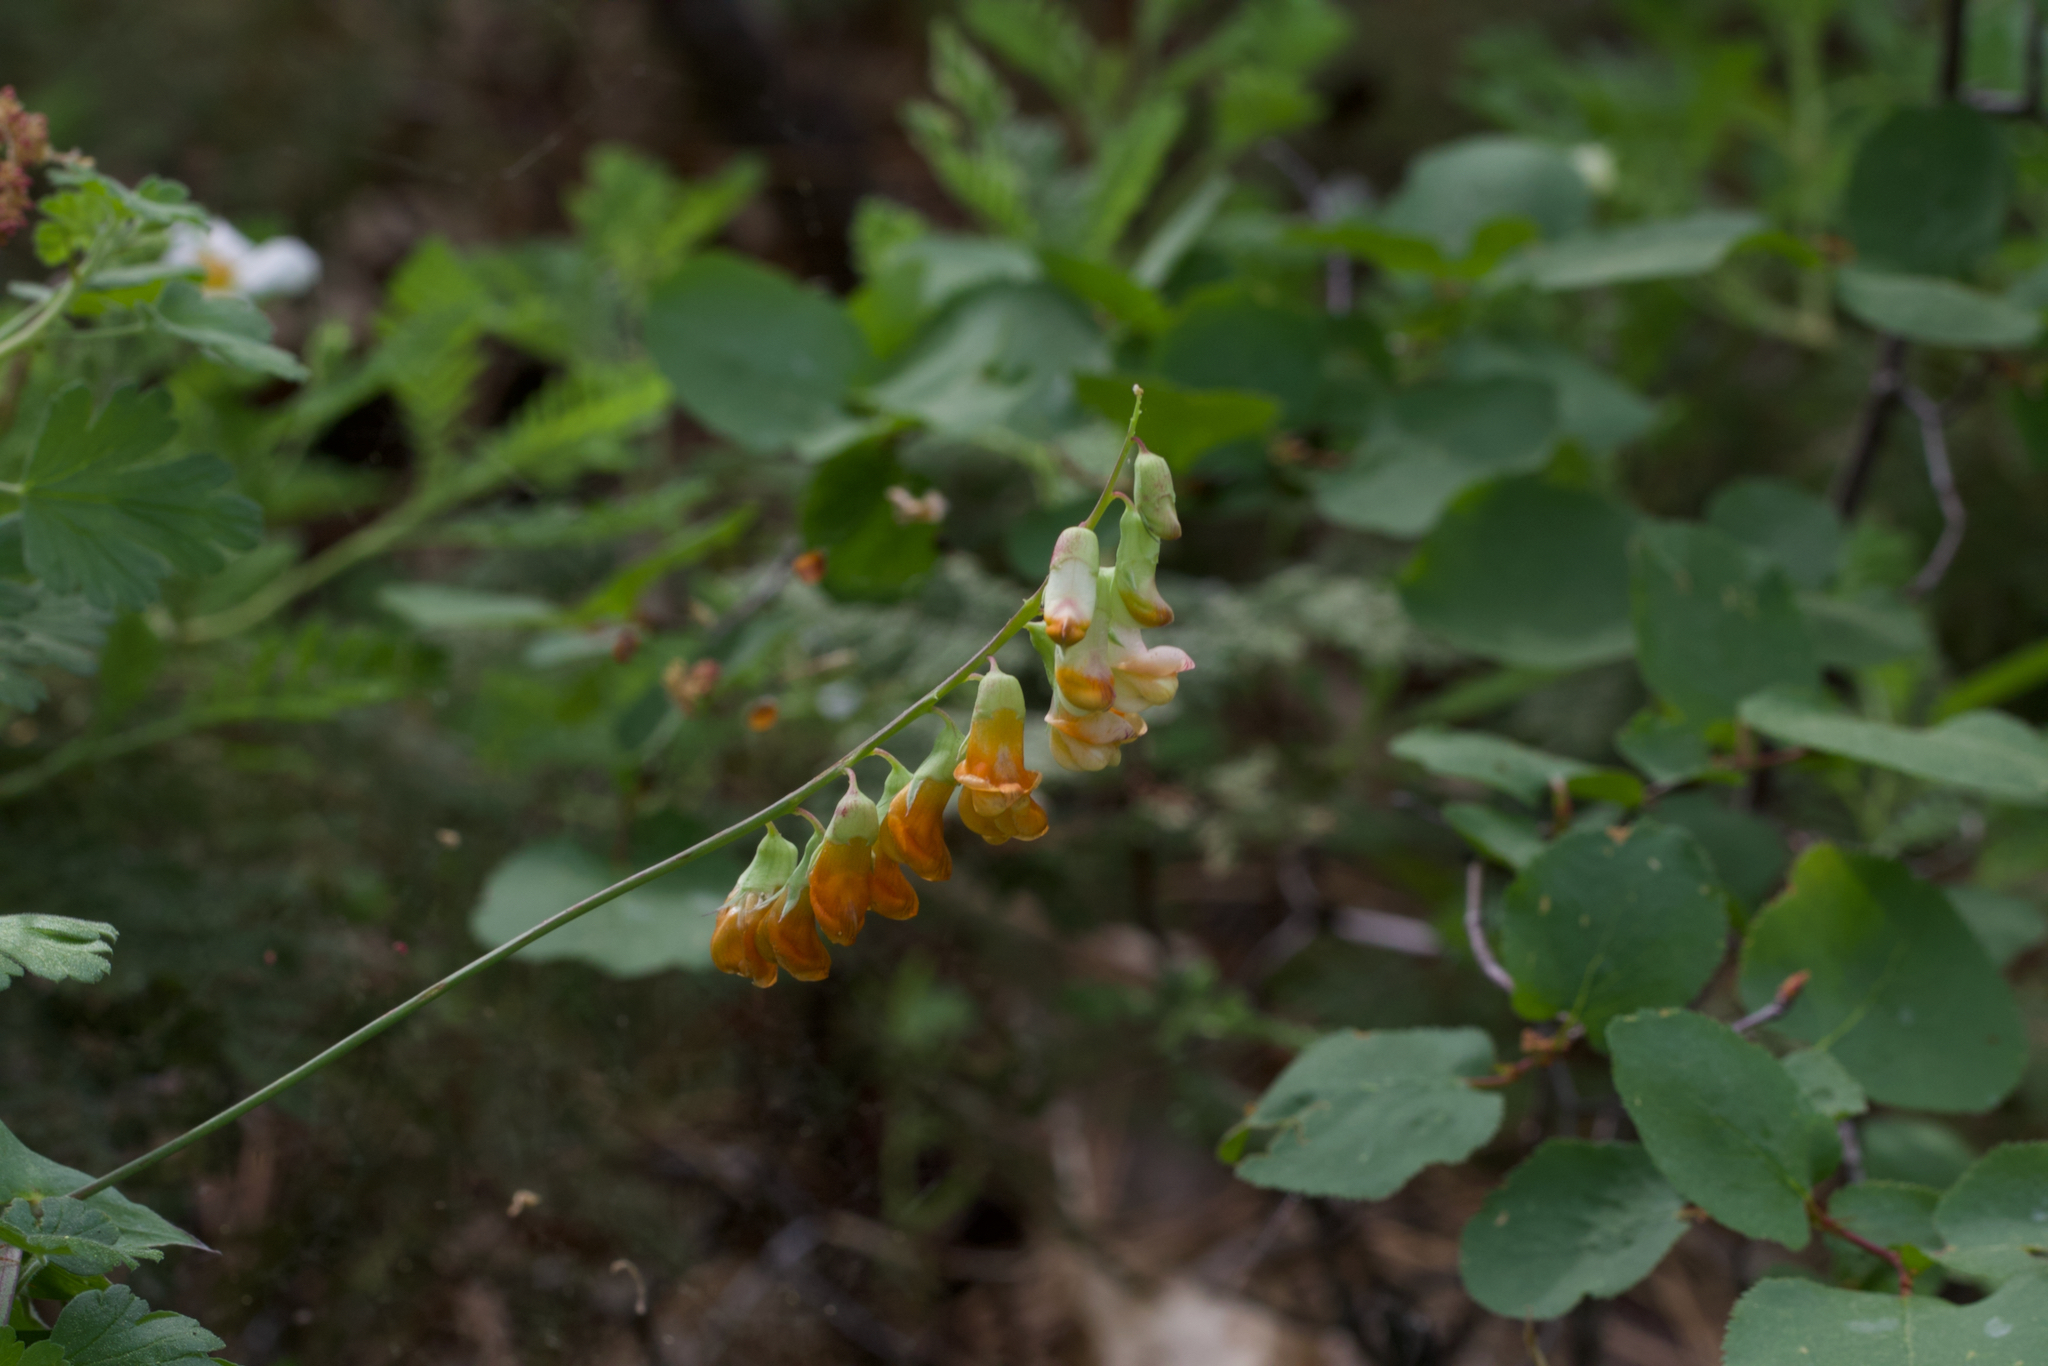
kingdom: Plantae
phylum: Tracheophyta
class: Magnoliopsida
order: Fabales
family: Fabaceae
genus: Lathyrus
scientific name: Lathyrus sulphureus
